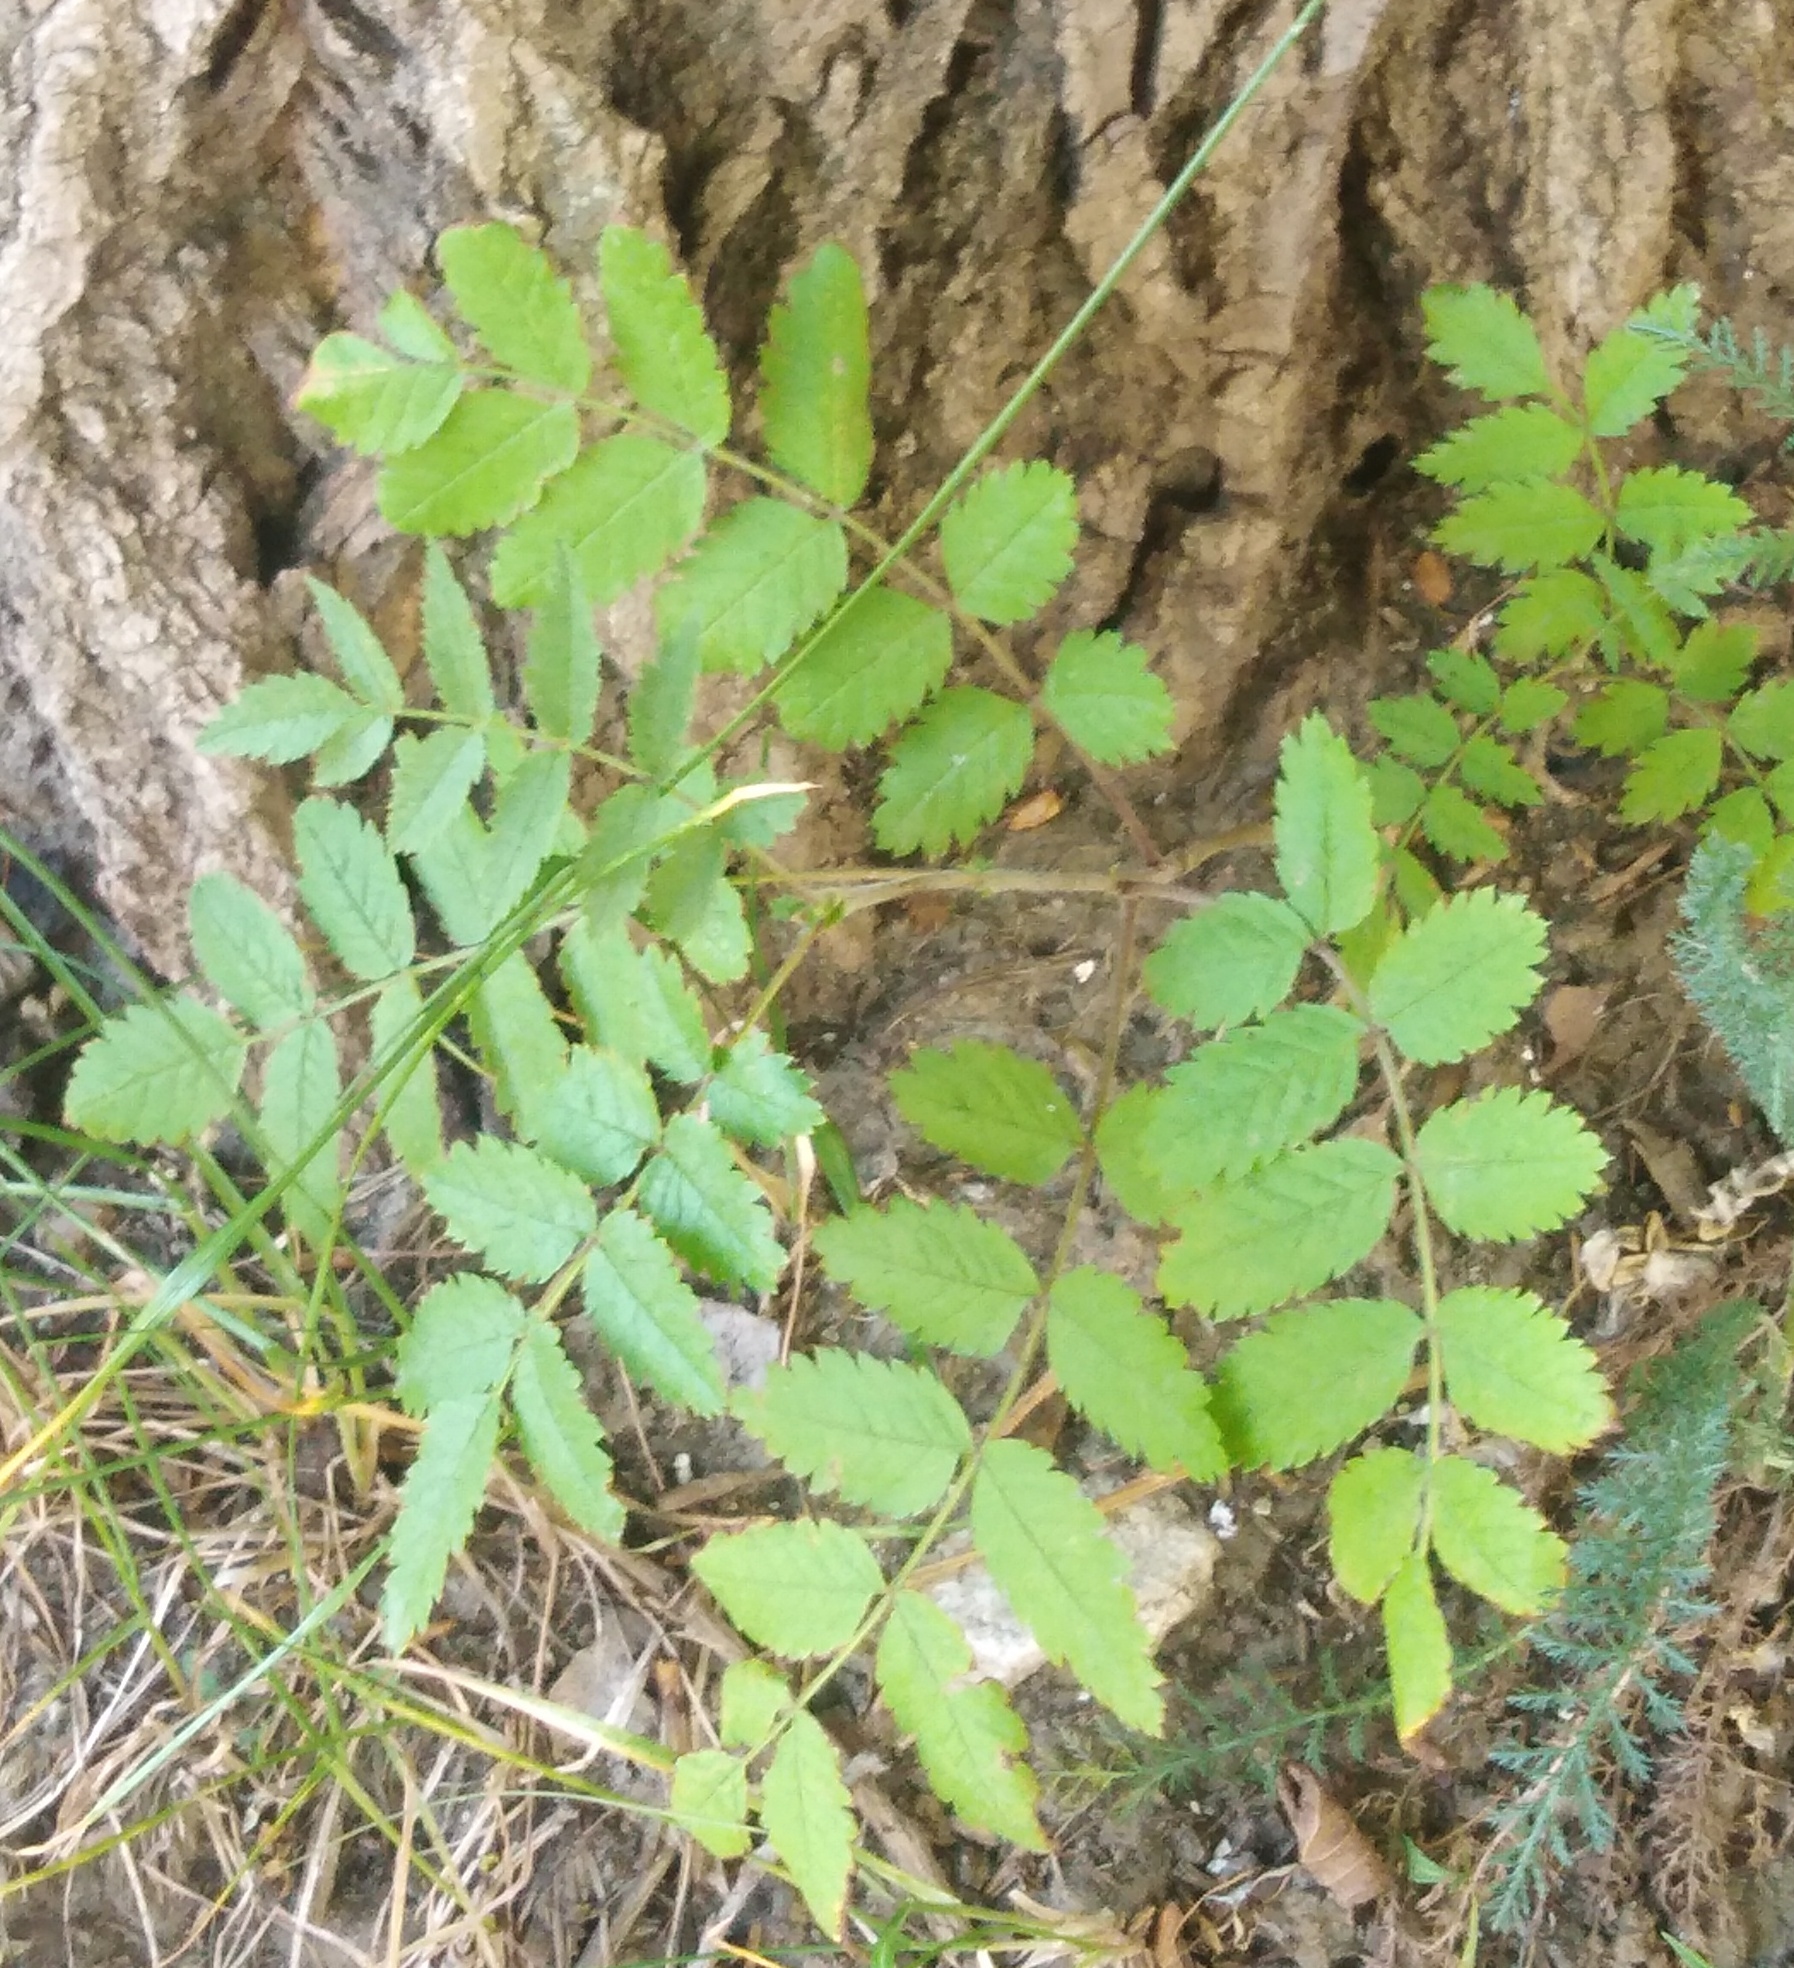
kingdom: Plantae
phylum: Tracheophyta
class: Magnoliopsida
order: Rosales
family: Rosaceae
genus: Sorbus
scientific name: Sorbus aucuparia
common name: Rowan
